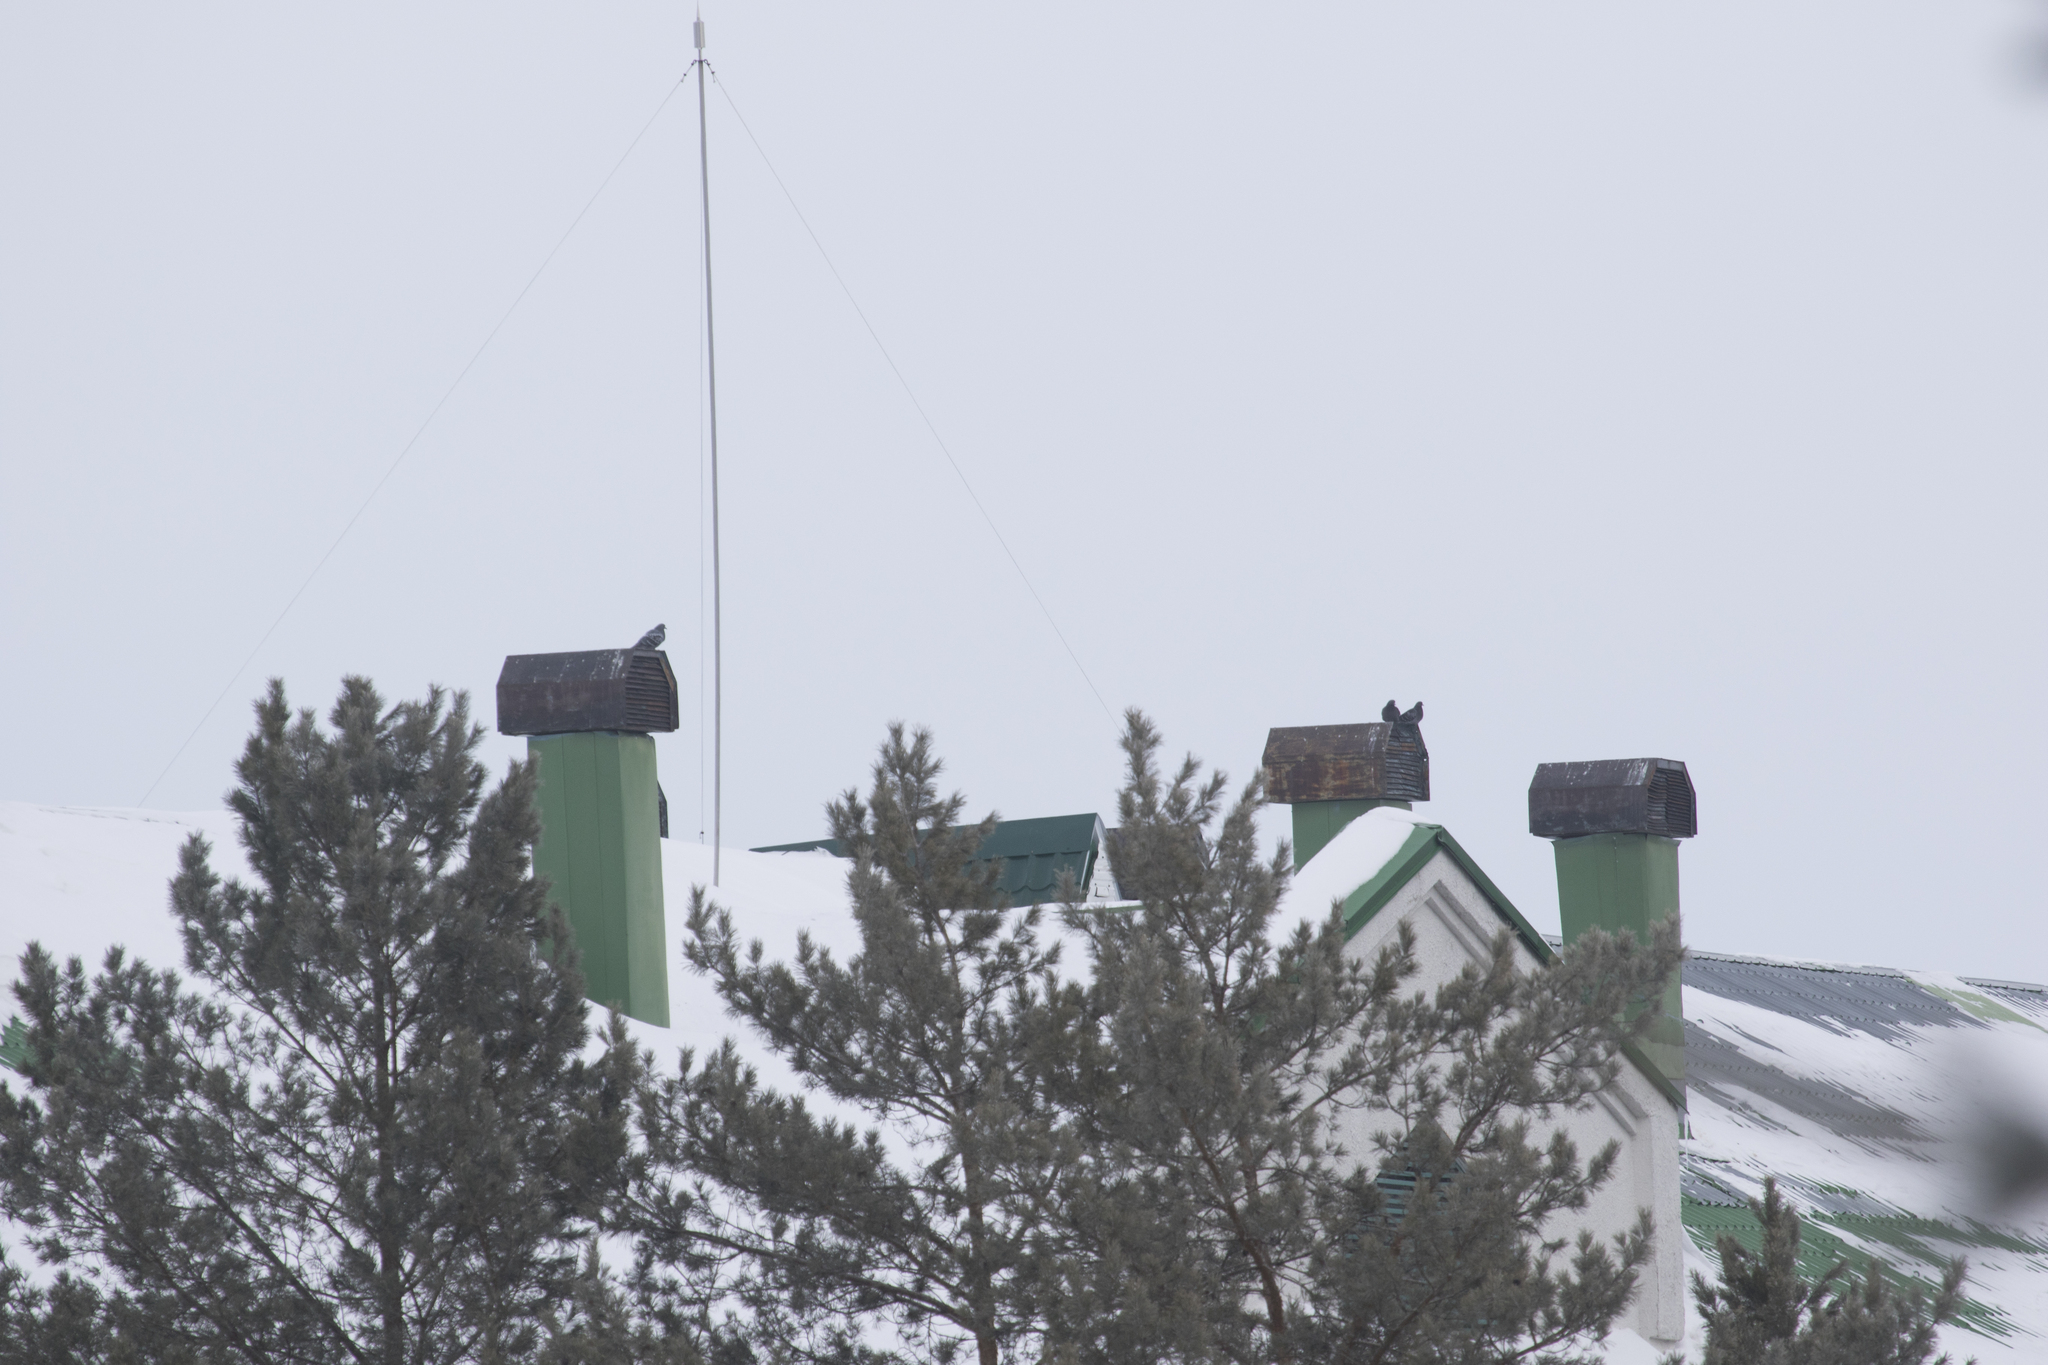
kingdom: Animalia
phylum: Chordata
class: Aves
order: Columbiformes
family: Columbidae
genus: Columba
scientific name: Columba livia
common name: Rock pigeon
